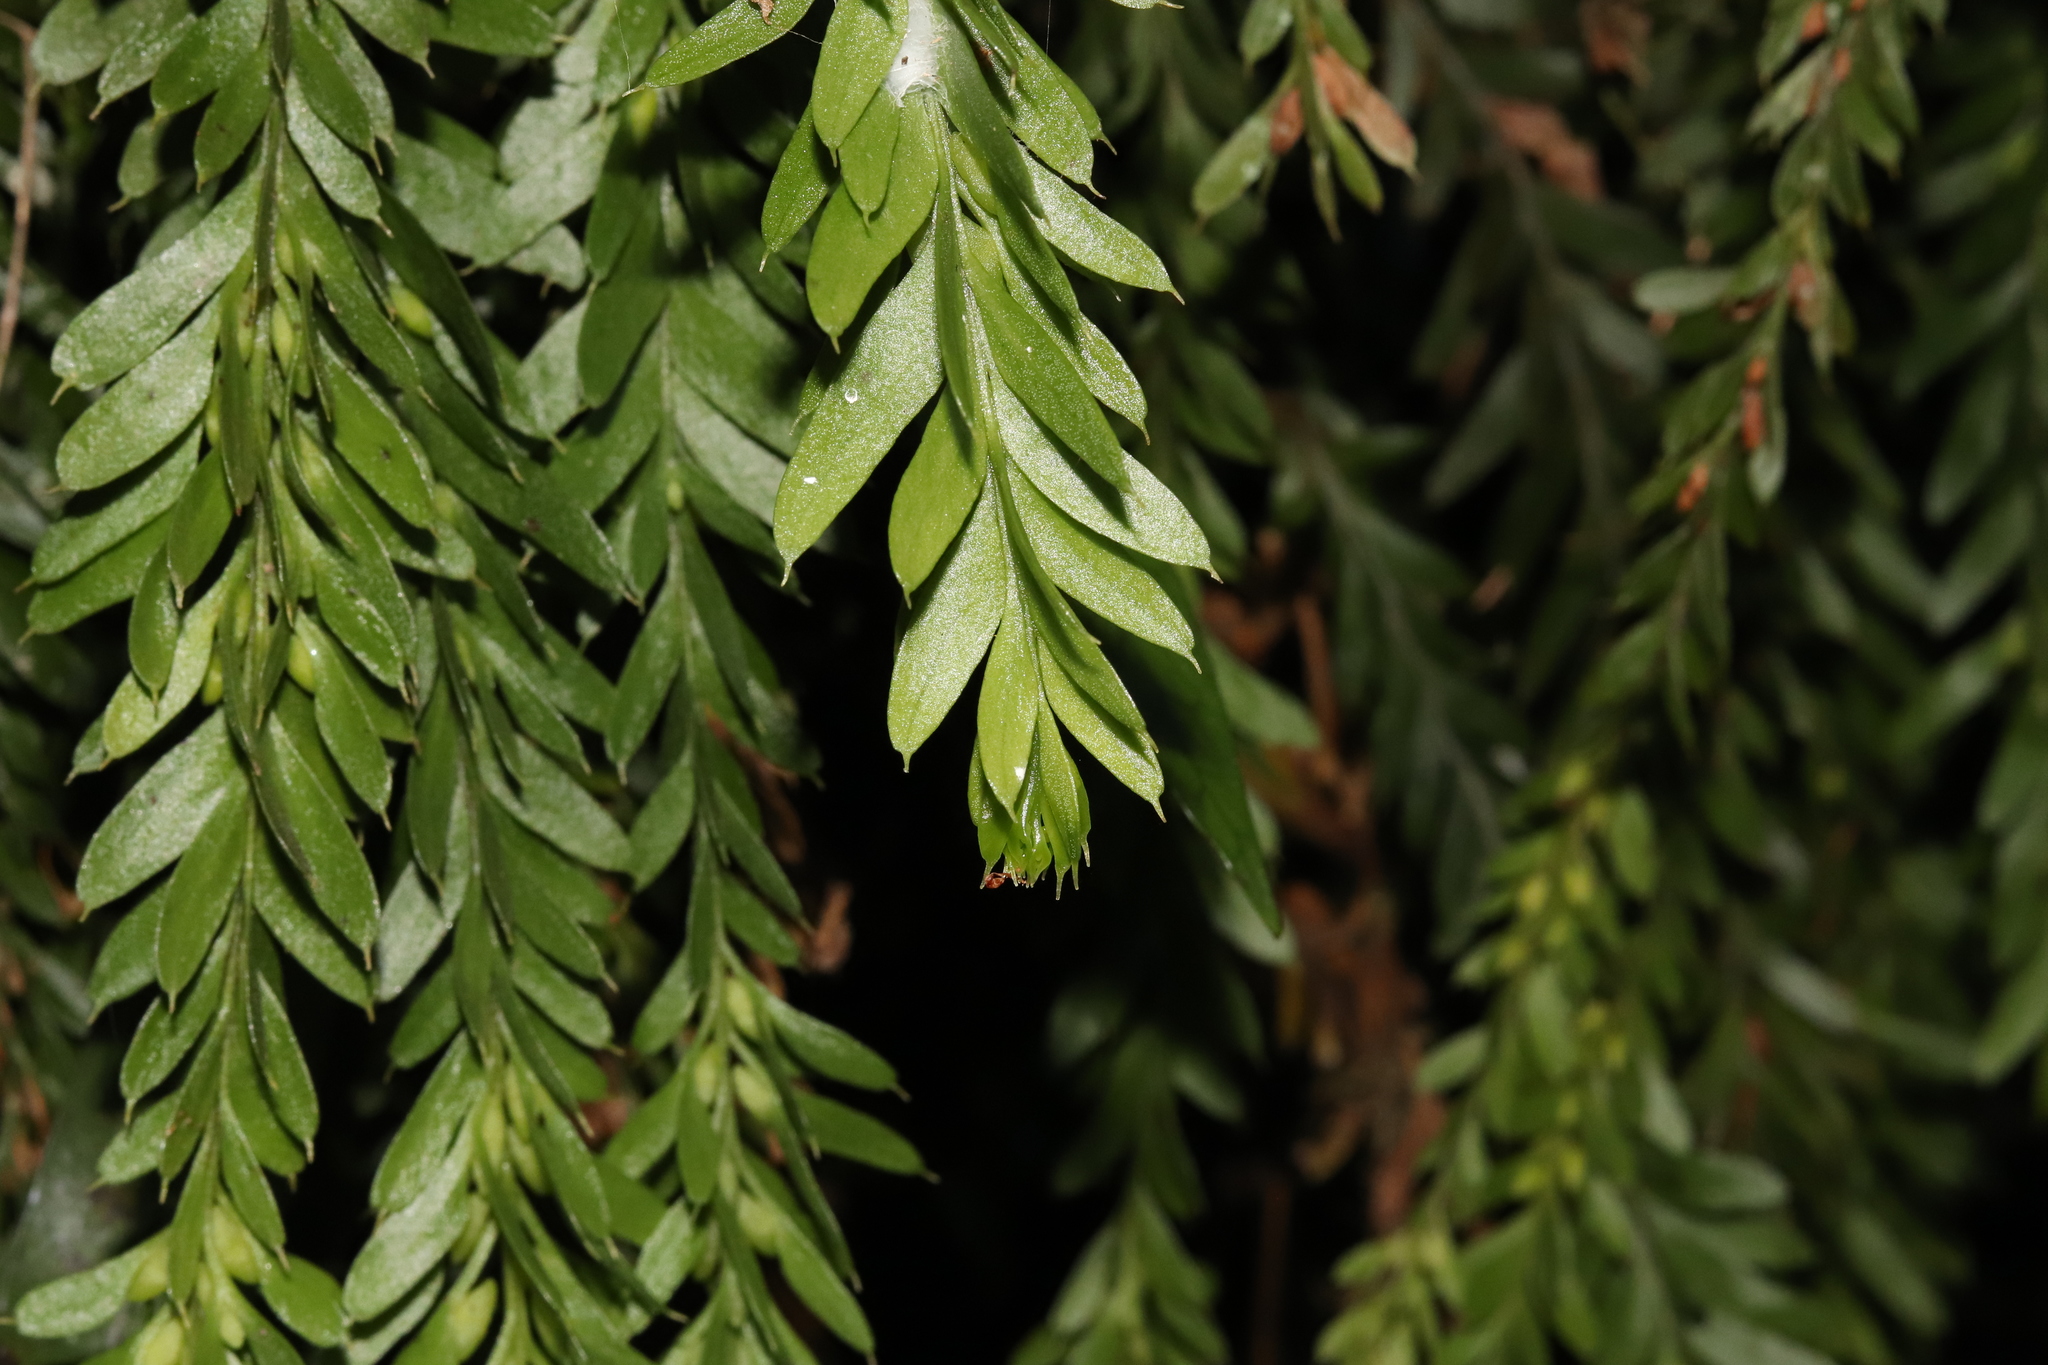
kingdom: Plantae
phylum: Tracheophyta
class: Polypodiopsida
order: Psilotales
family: Psilotaceae
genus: Tmesipteris
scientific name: Tmesipteris tannensis
